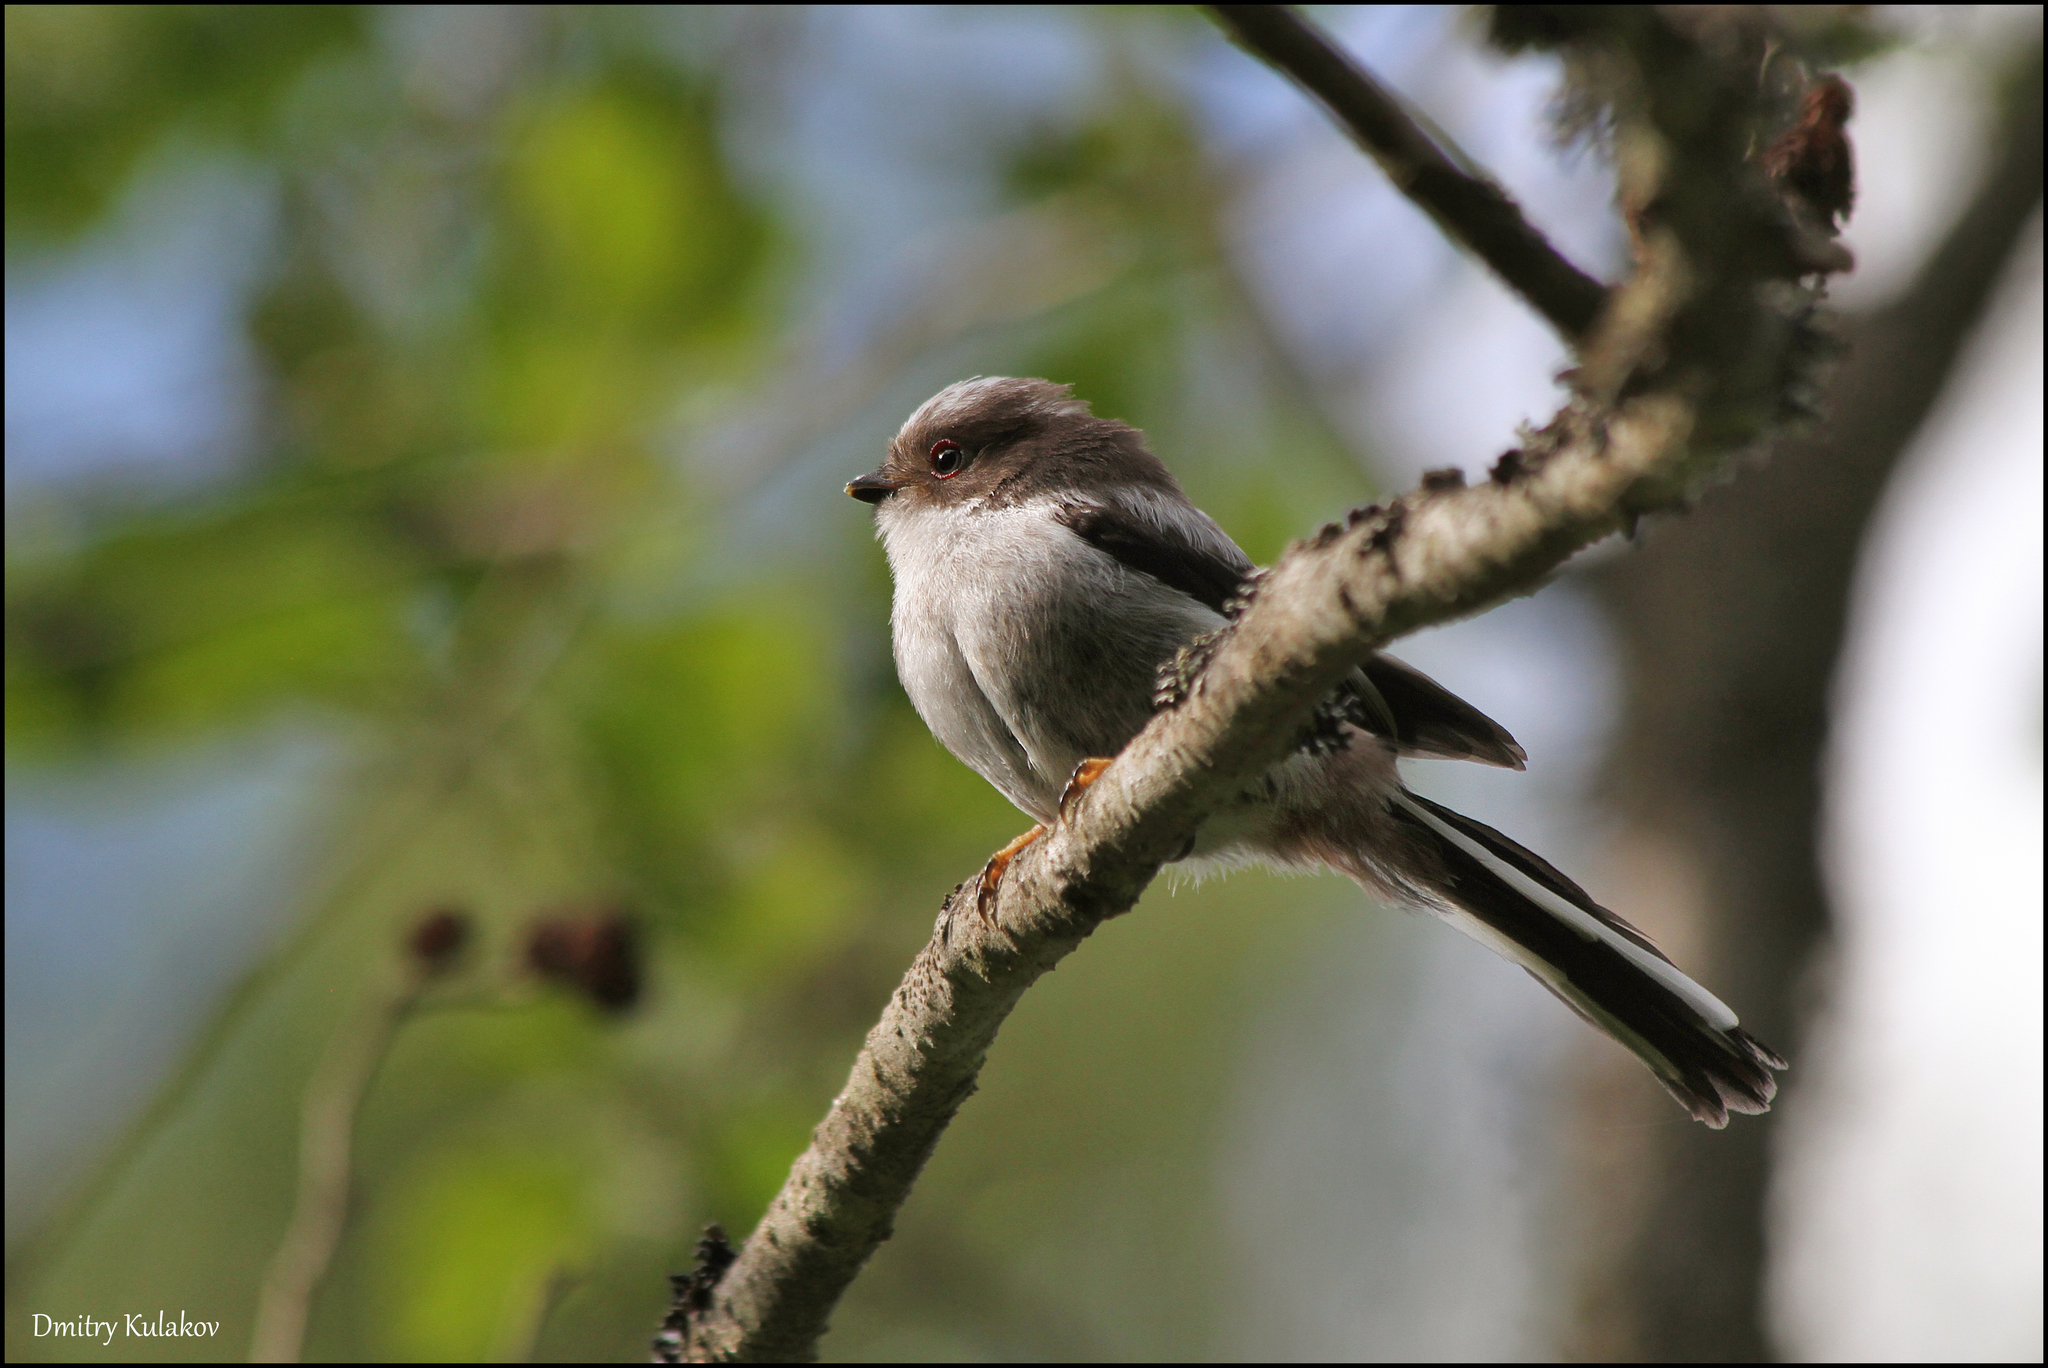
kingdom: Animalia
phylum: Chordata
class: Aves
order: Passeriformes
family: Aegithalidae
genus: Aegithalos
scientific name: Aegithalos caudatus
